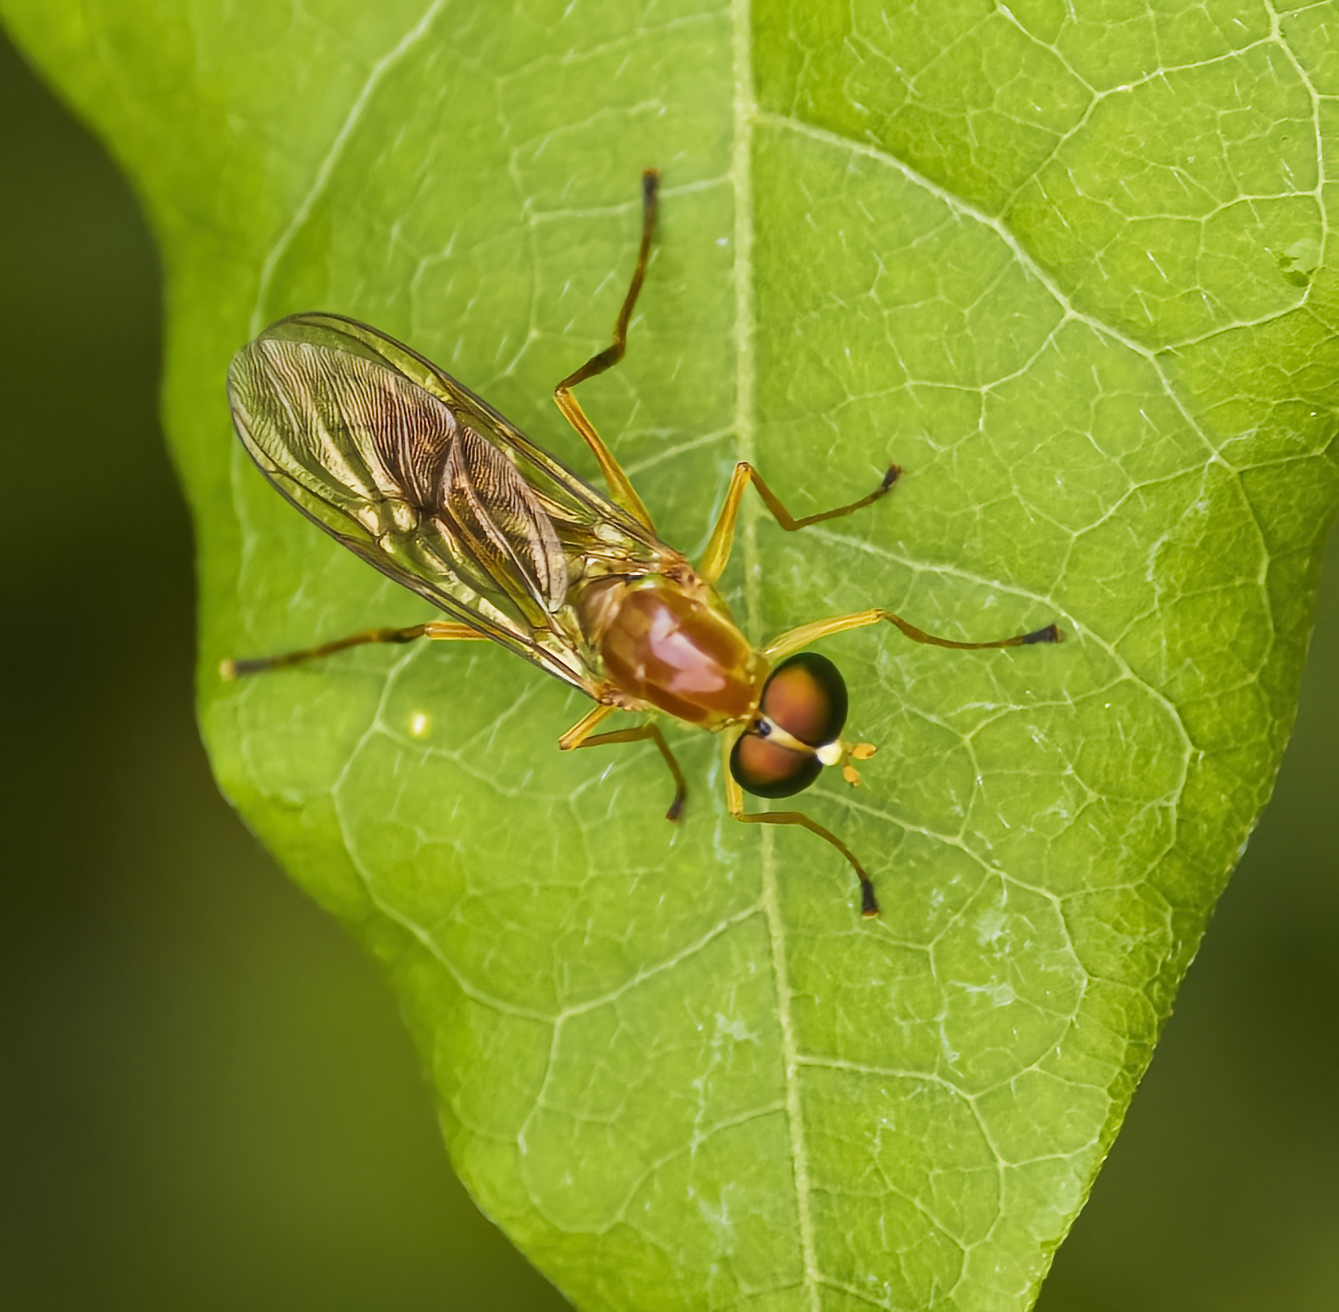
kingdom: Animalia
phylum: Arthropoda
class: Insecta
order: Diptera
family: Stratiomyidae
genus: Ptecticus
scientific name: Ptecticus trivittatus
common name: Compost fly
